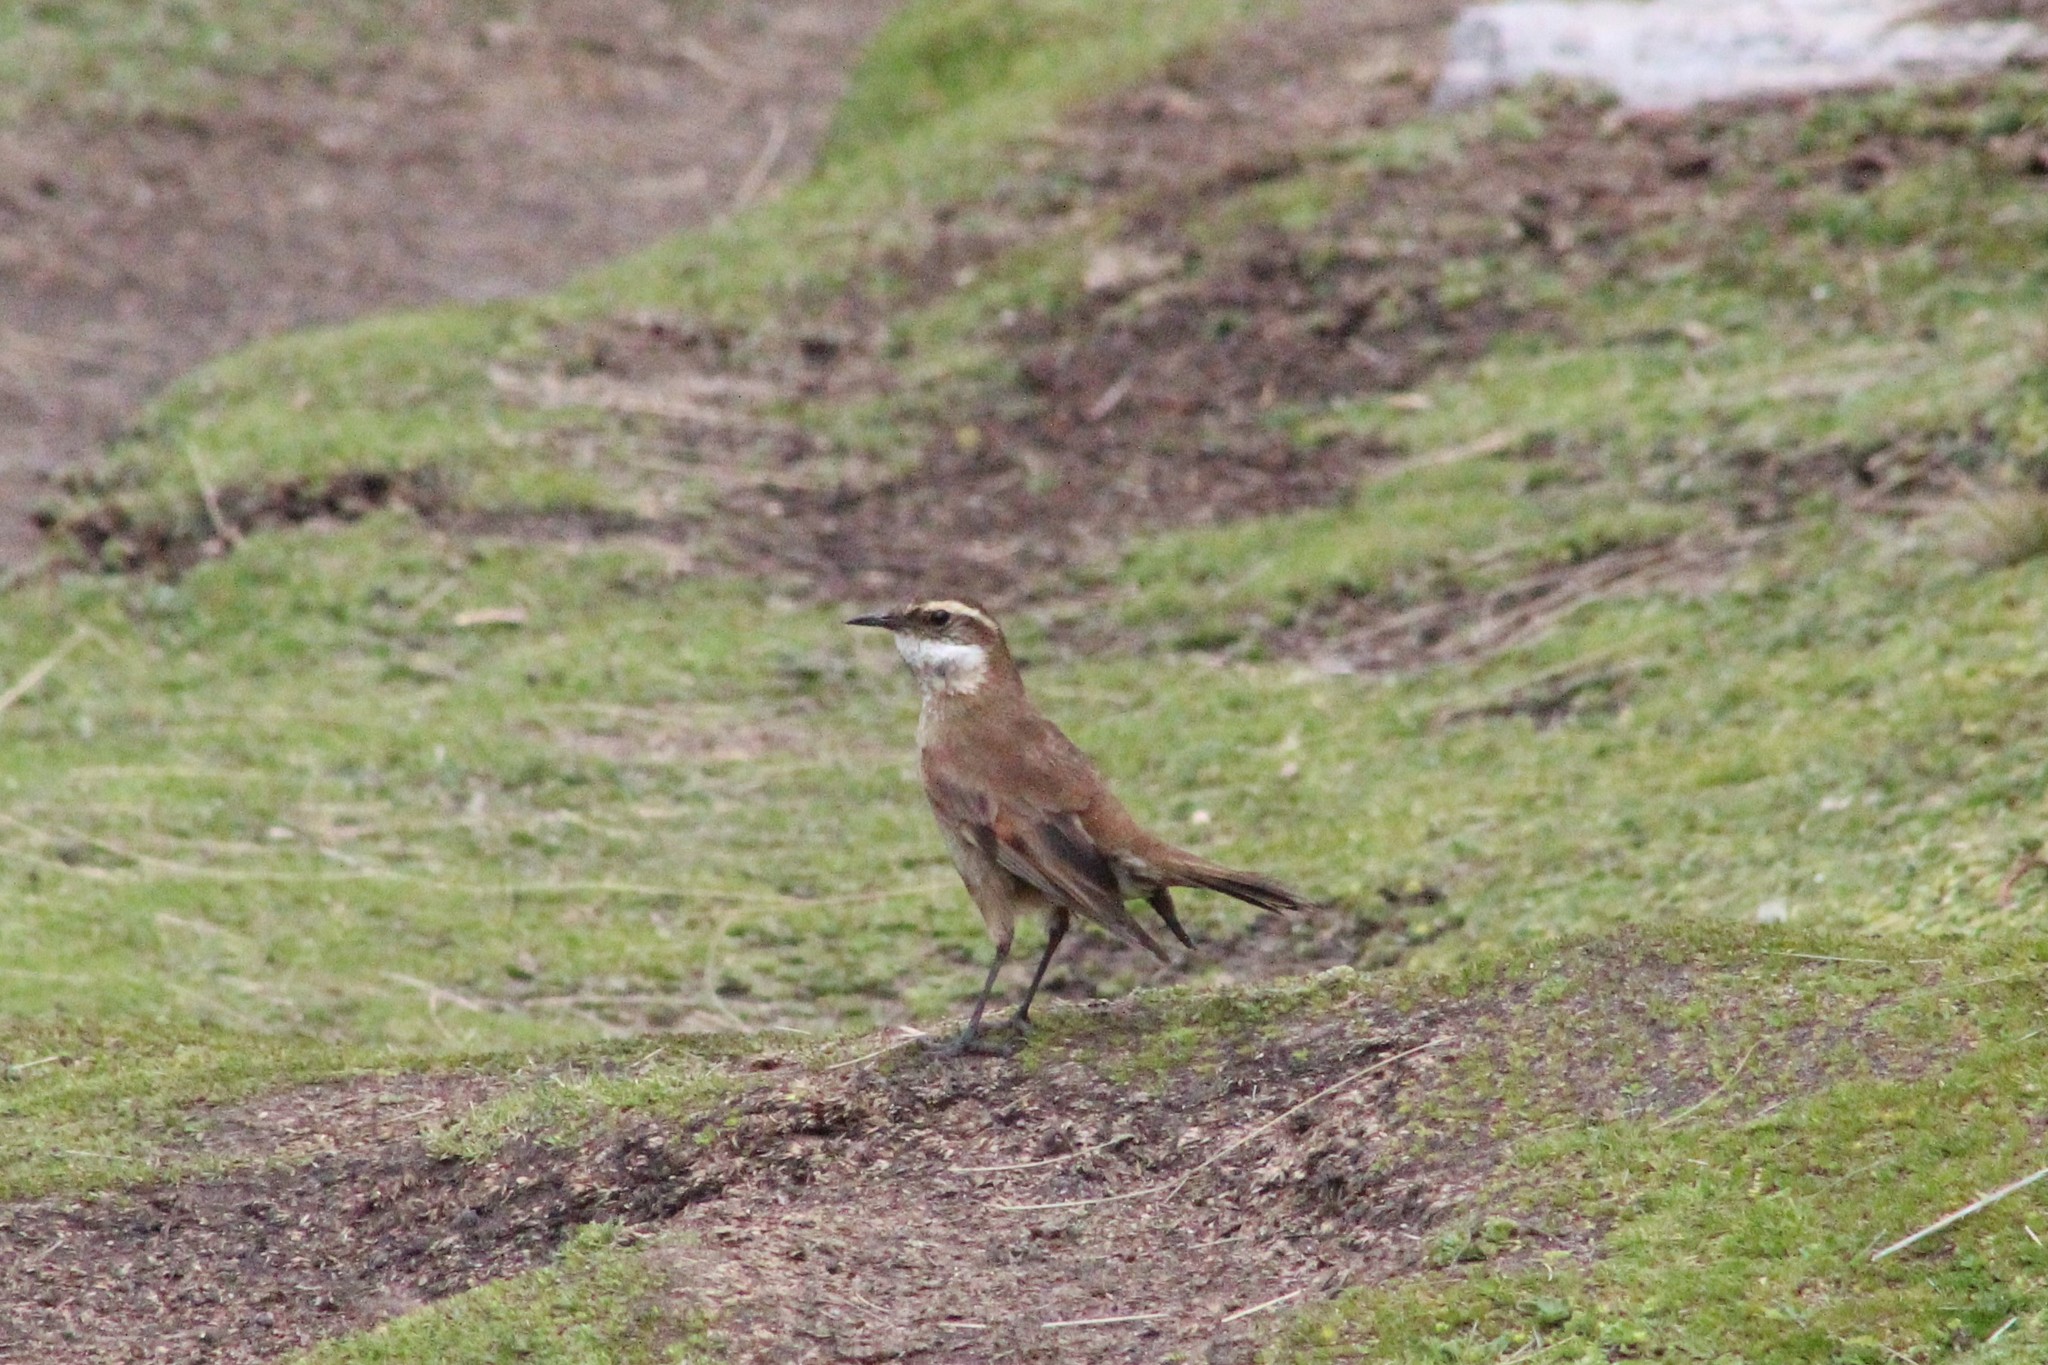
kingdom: Animalia
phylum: Chordata
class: Aves
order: Passeriformes
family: Furnariidae
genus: Cinclodes
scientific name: Cinclodes albidiventris
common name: Chestnut-winged cinclodes
